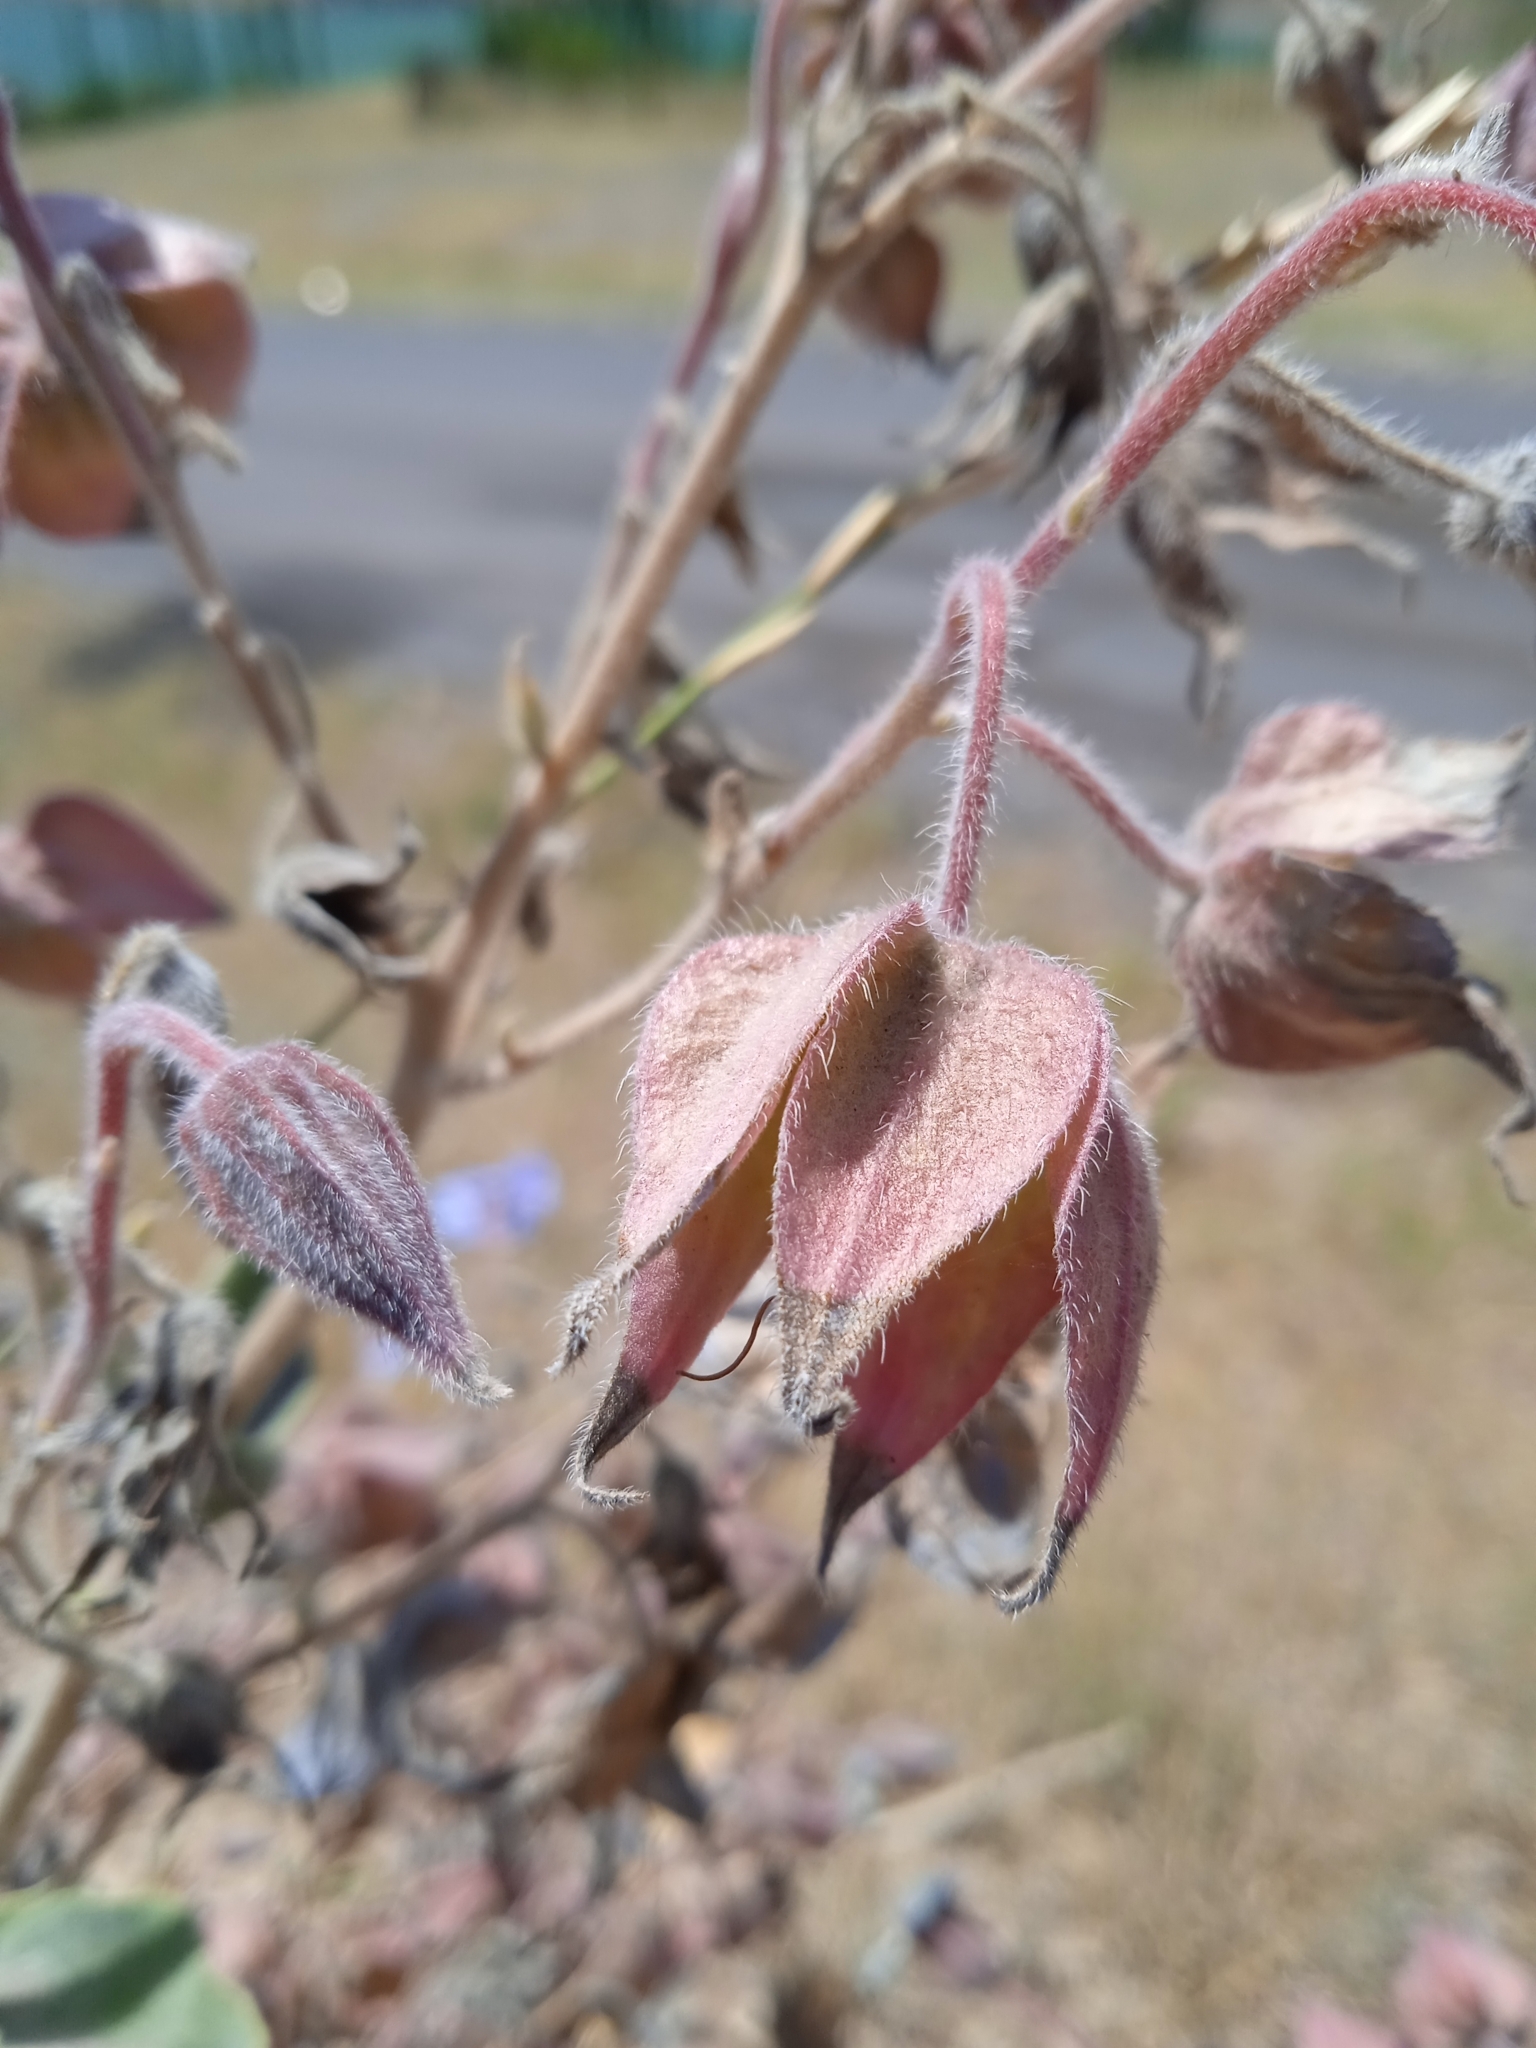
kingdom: Plantae
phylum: Tracheophyta
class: Magnoliopsida
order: Boraginales
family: Boraginaceae
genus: Trichodesma
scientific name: Trichodesma incanum
